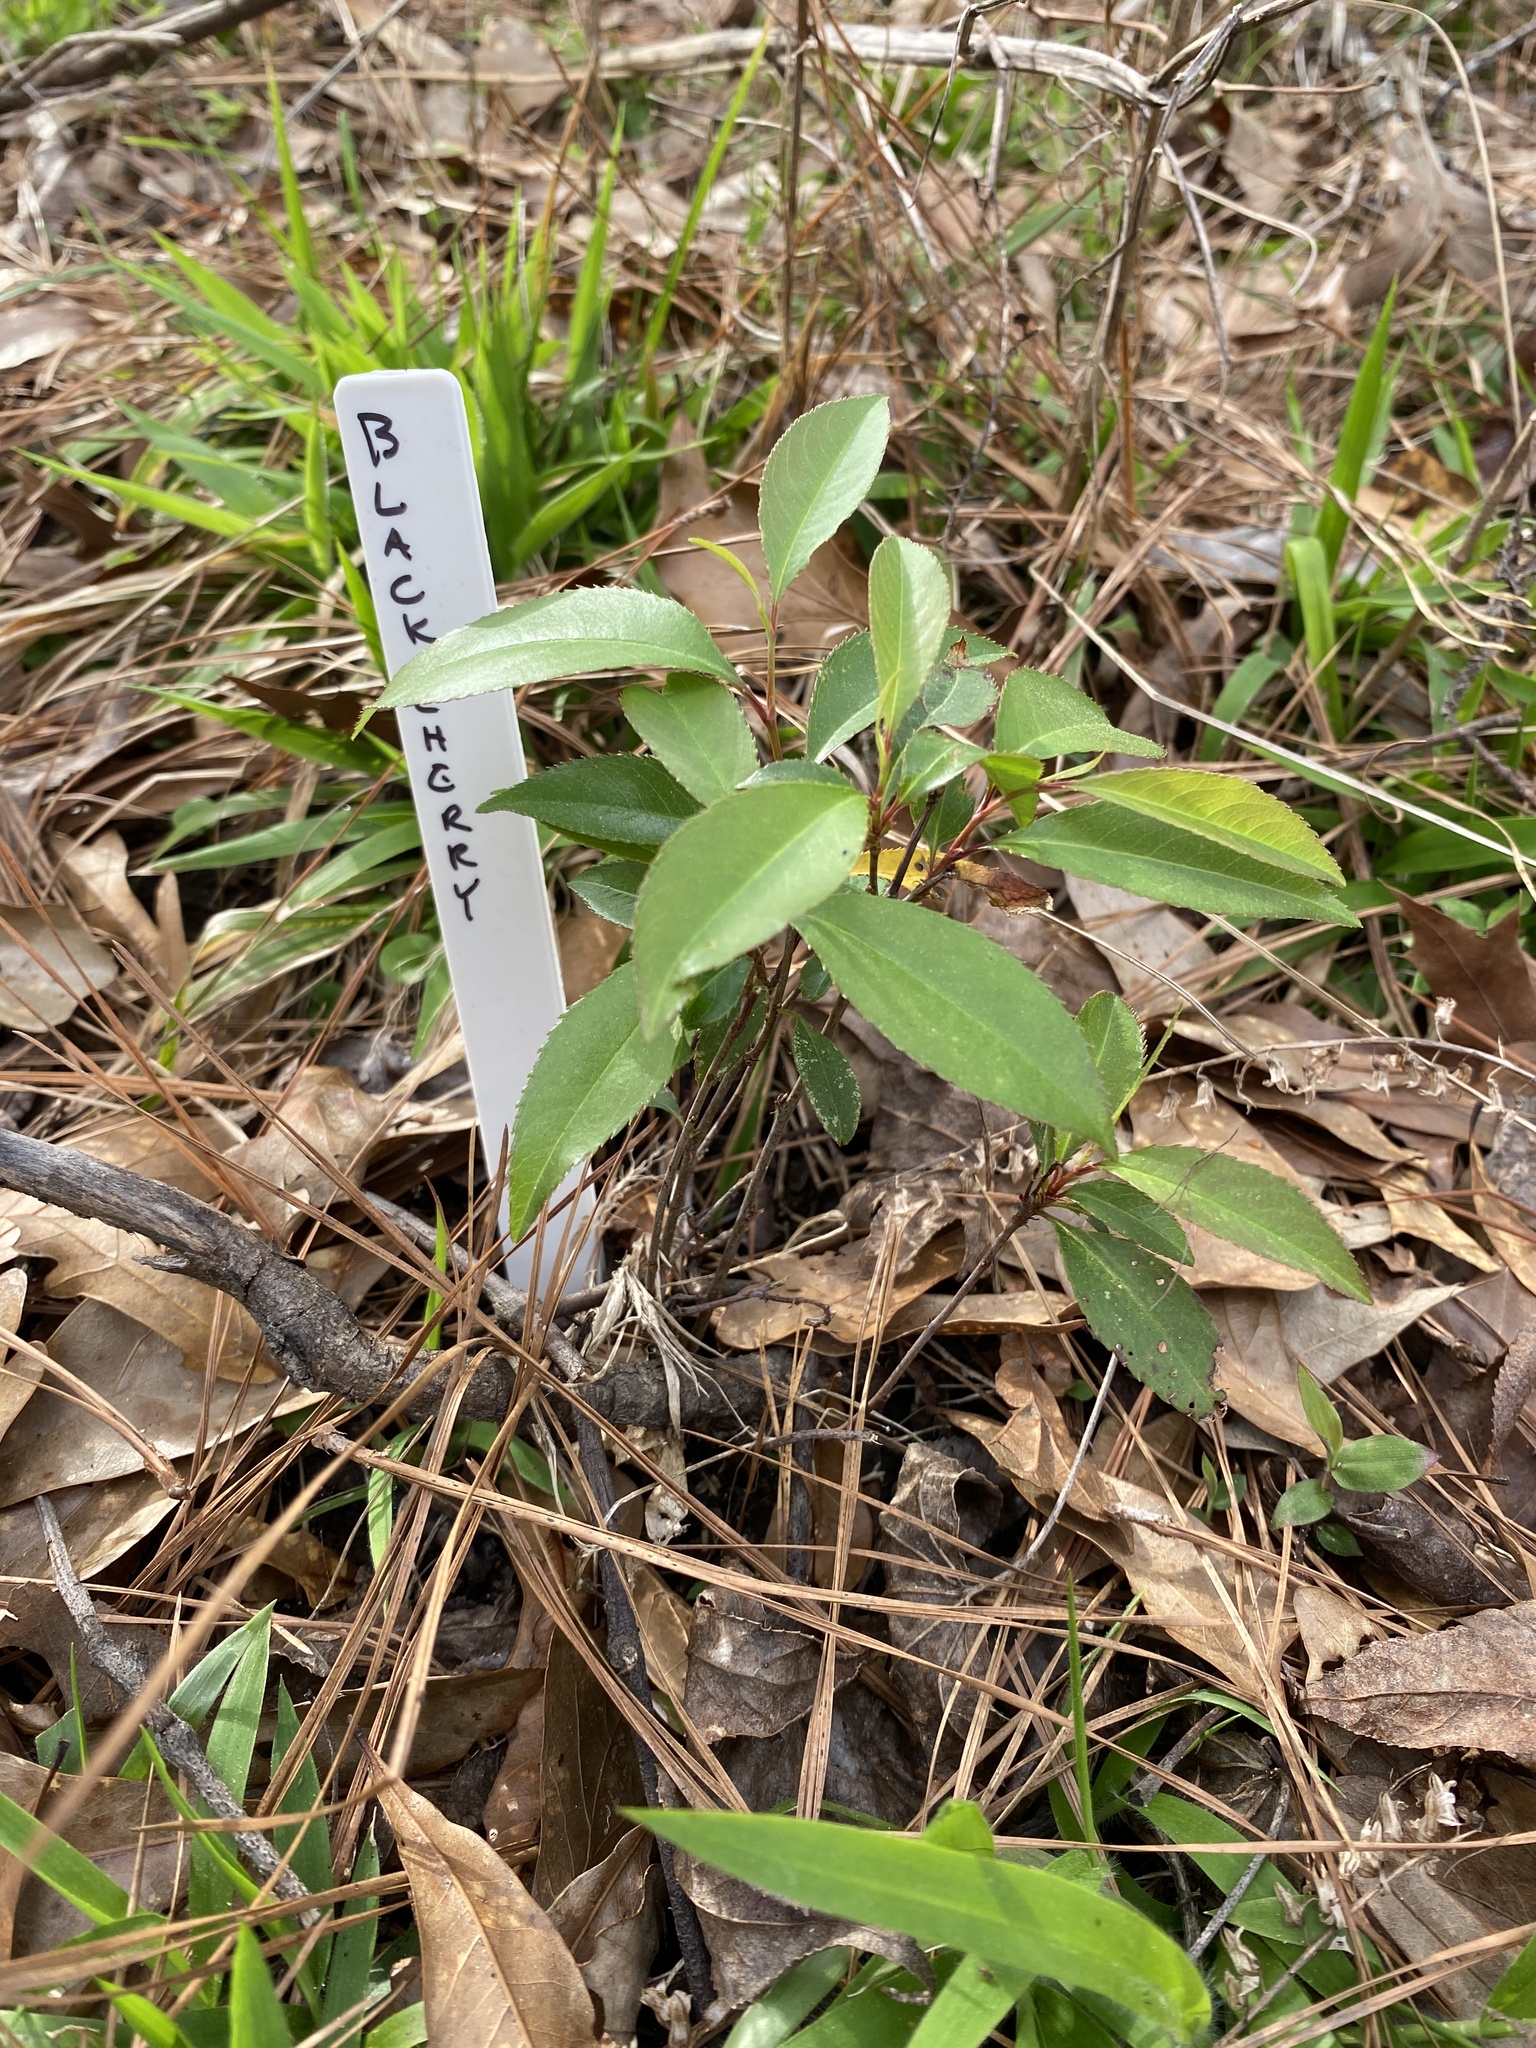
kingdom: Plantae
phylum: Tracheophyta
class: Magnoliopsida
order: Rosales
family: Rosaceae
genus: Prunus
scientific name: Prunus serotina
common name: Black cherry
